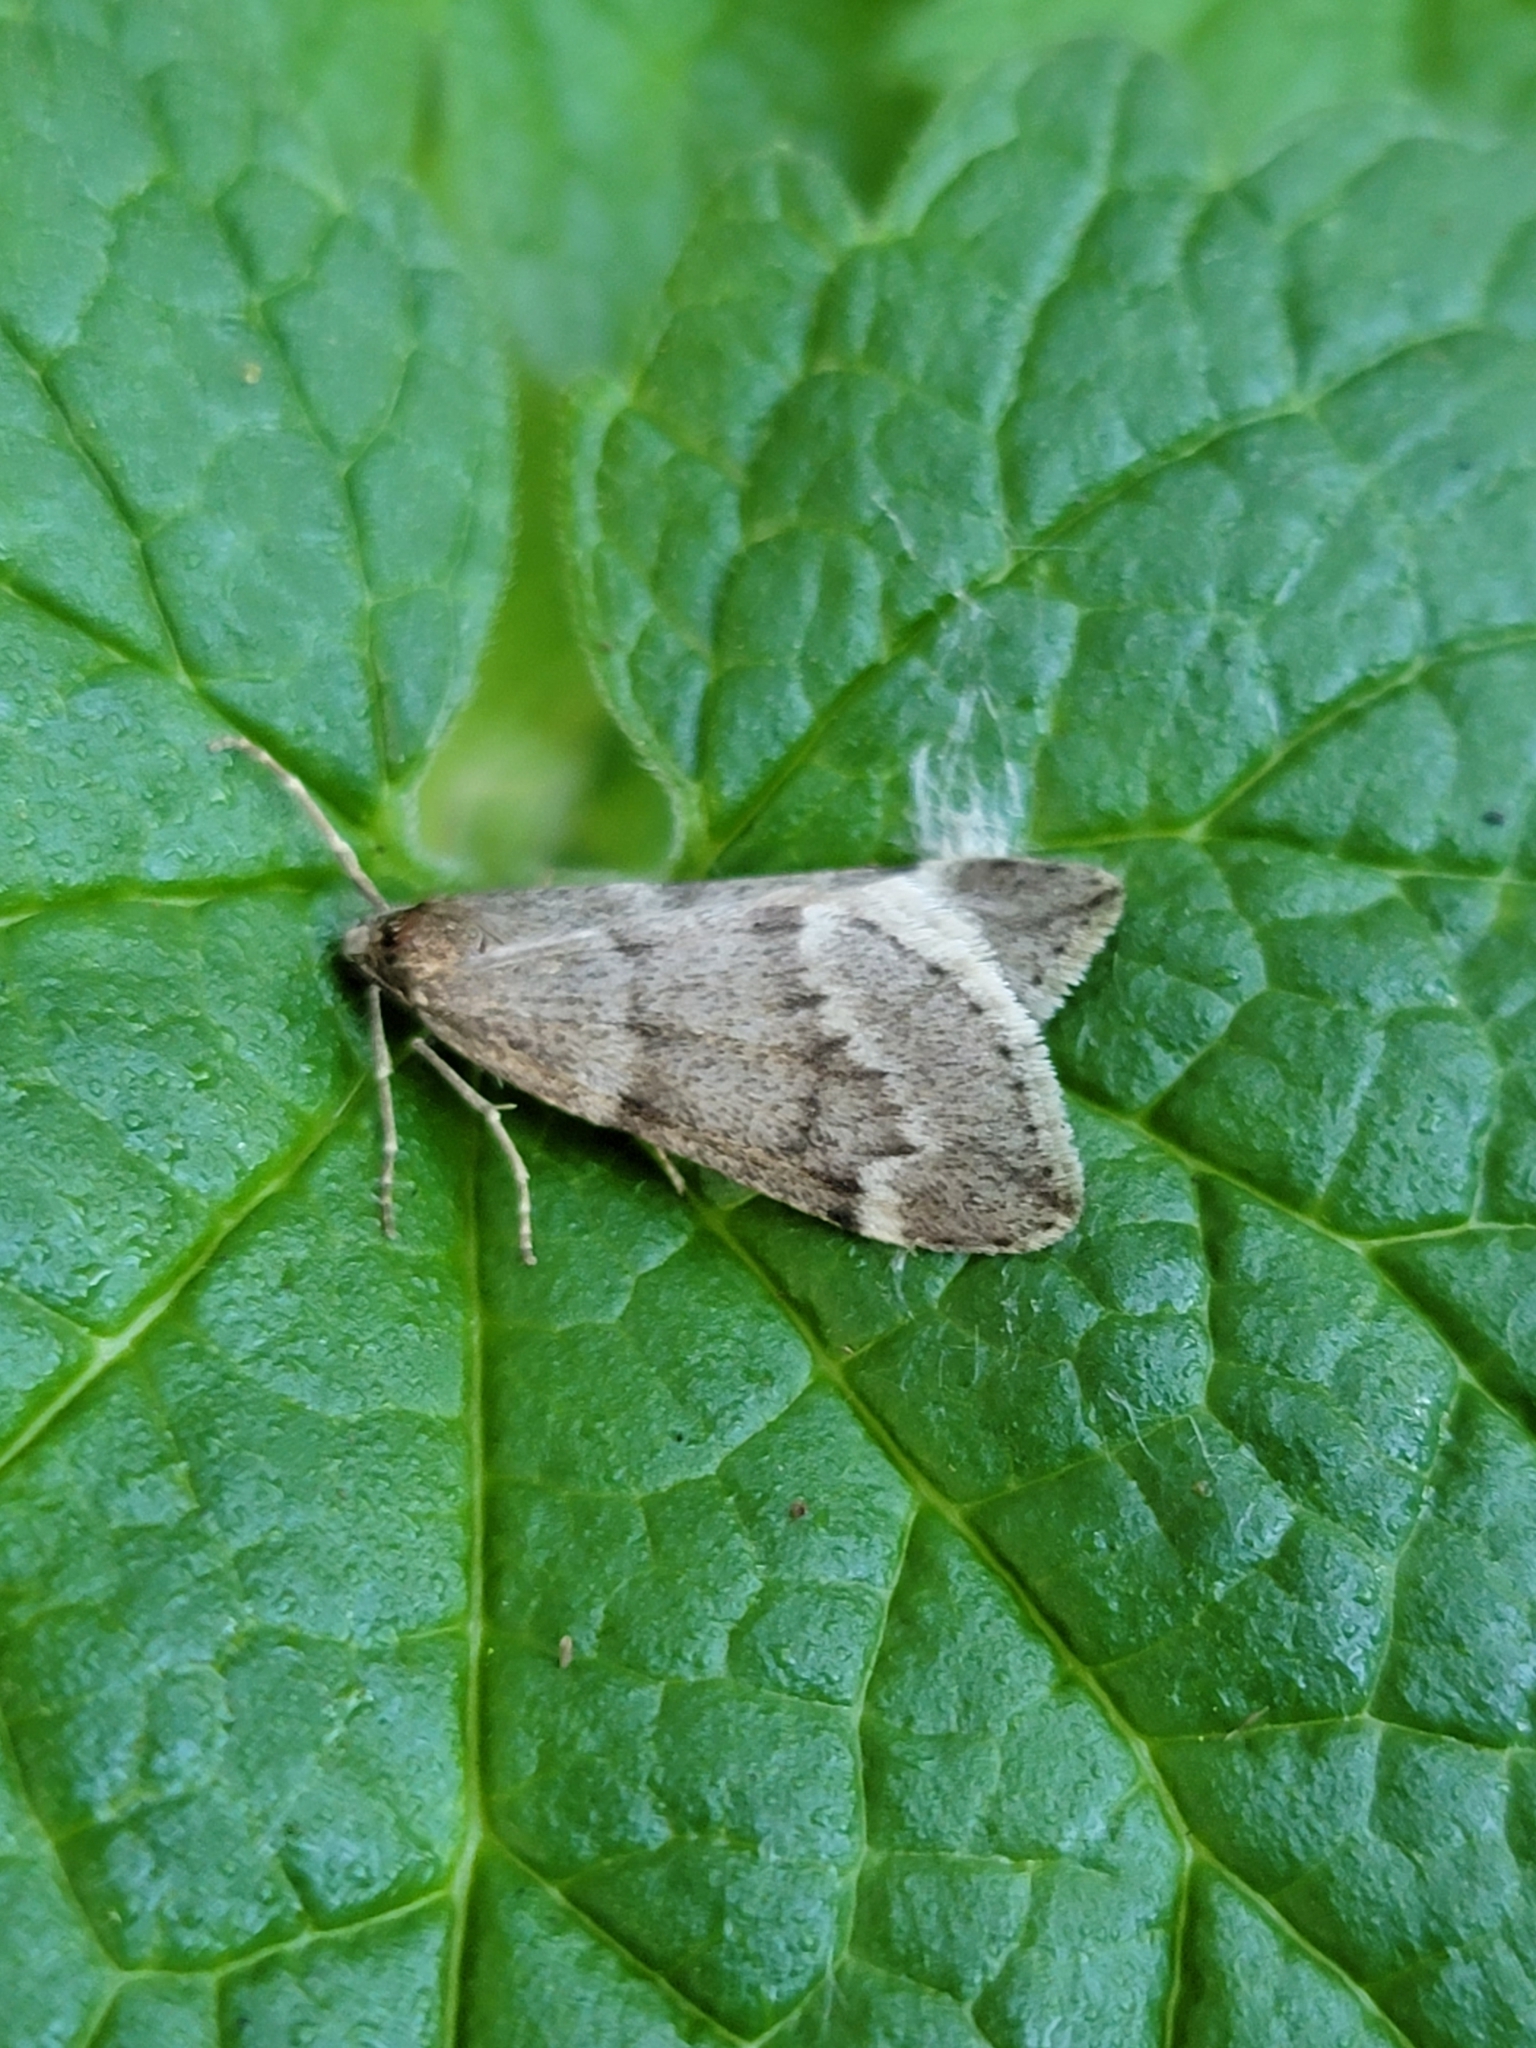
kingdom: Animalia
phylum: Arthropoda
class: Insecta
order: Lepidoptera
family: Geometridae
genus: Alsophila
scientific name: Alsophila pometaria
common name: Fall cankerworm
